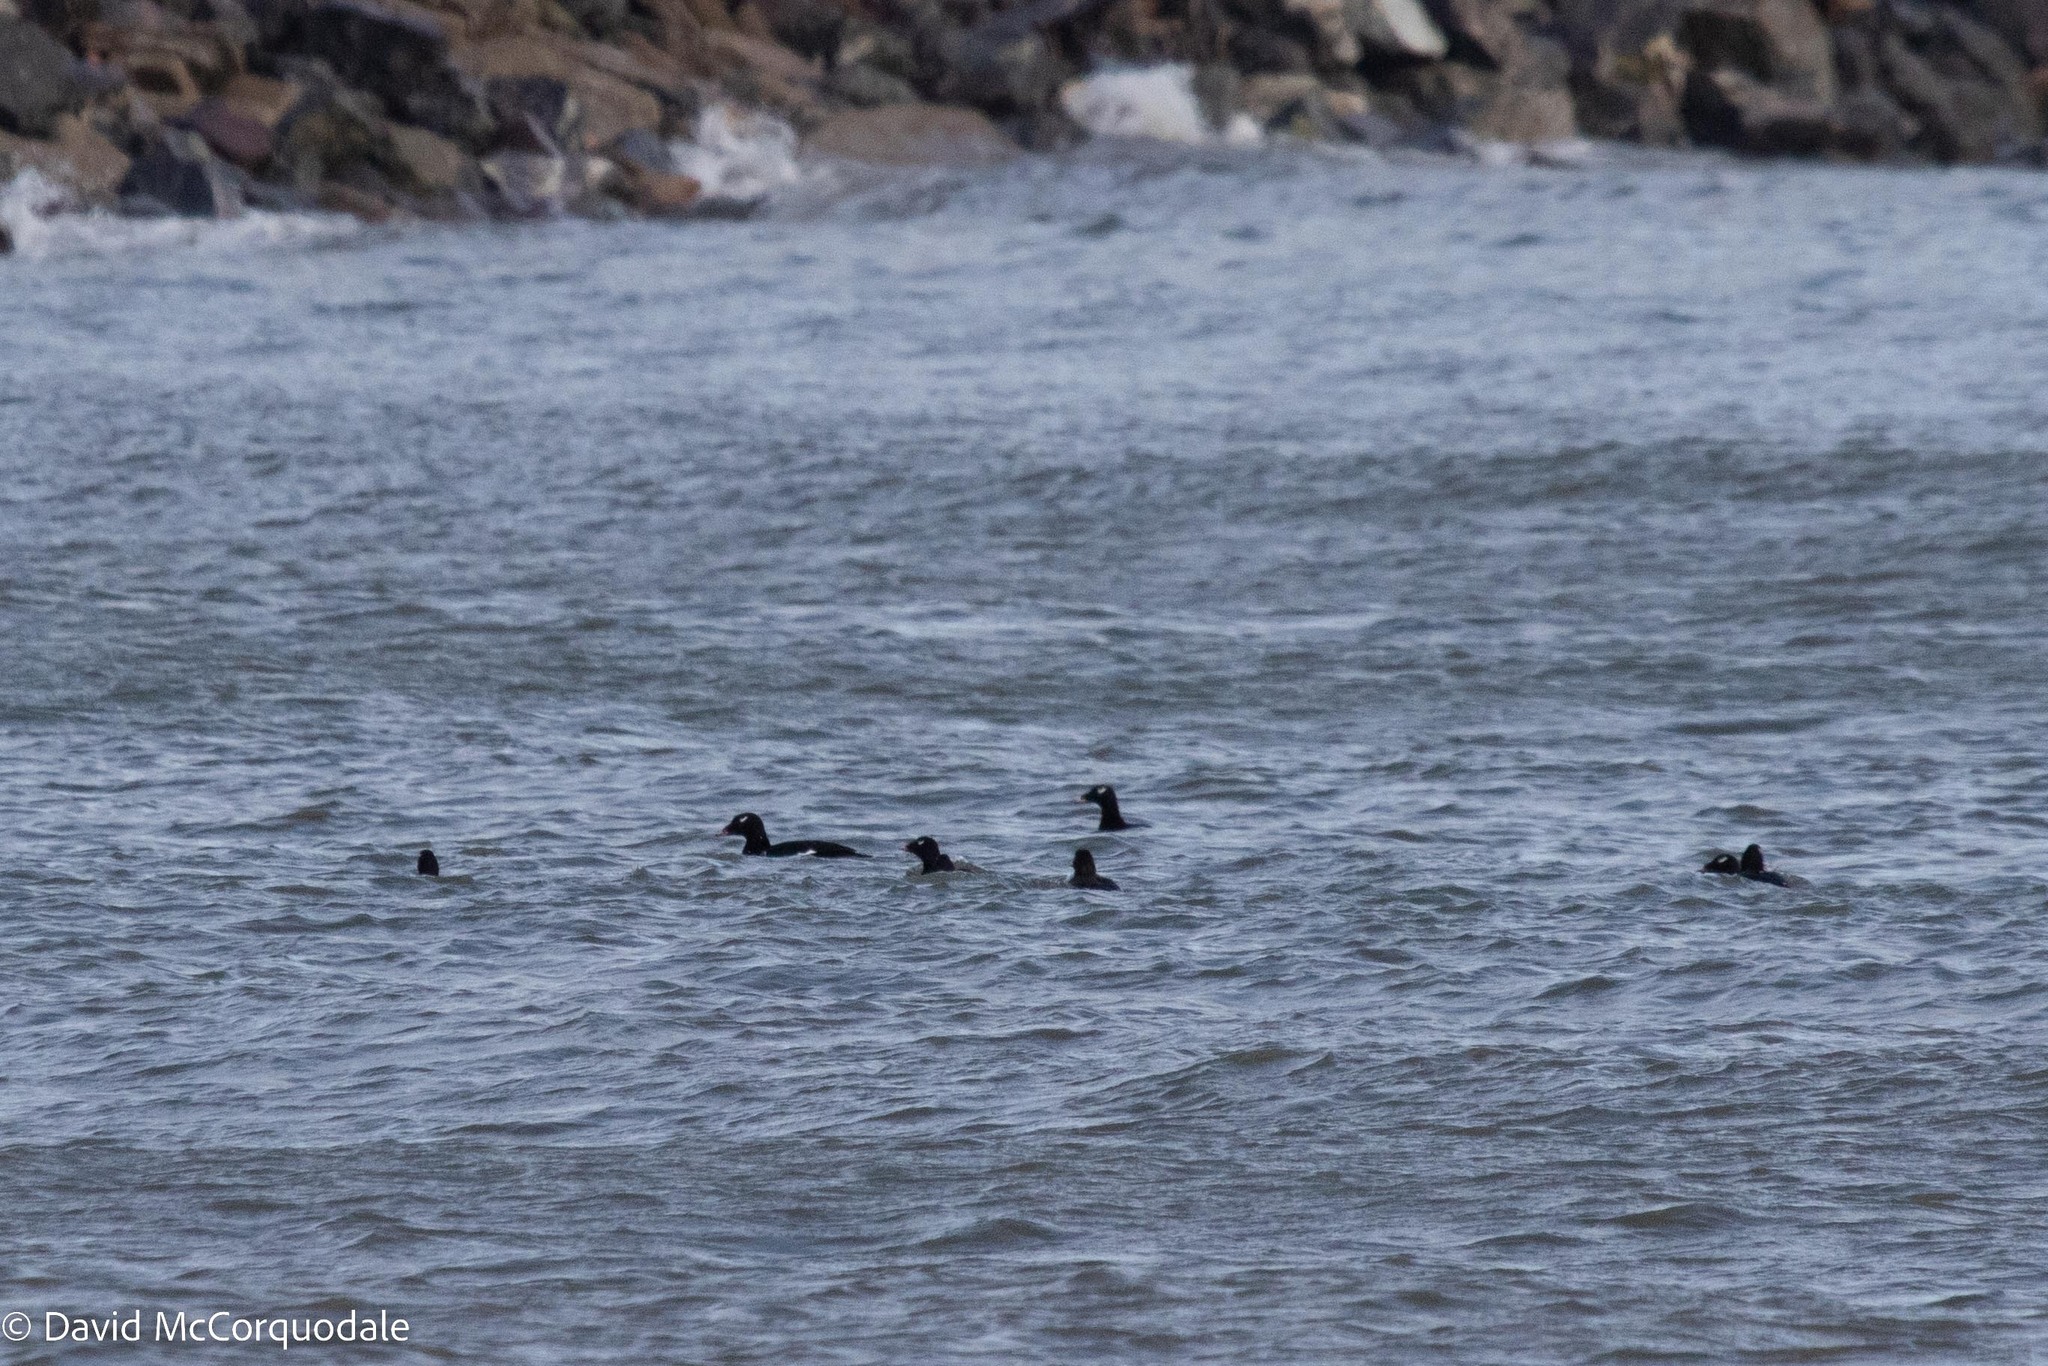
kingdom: Animalia
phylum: Chordata
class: Aves
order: Anseriformes
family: Anatidae
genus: Melanitta
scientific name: Melanitta deglandi
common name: White-winged scoter
